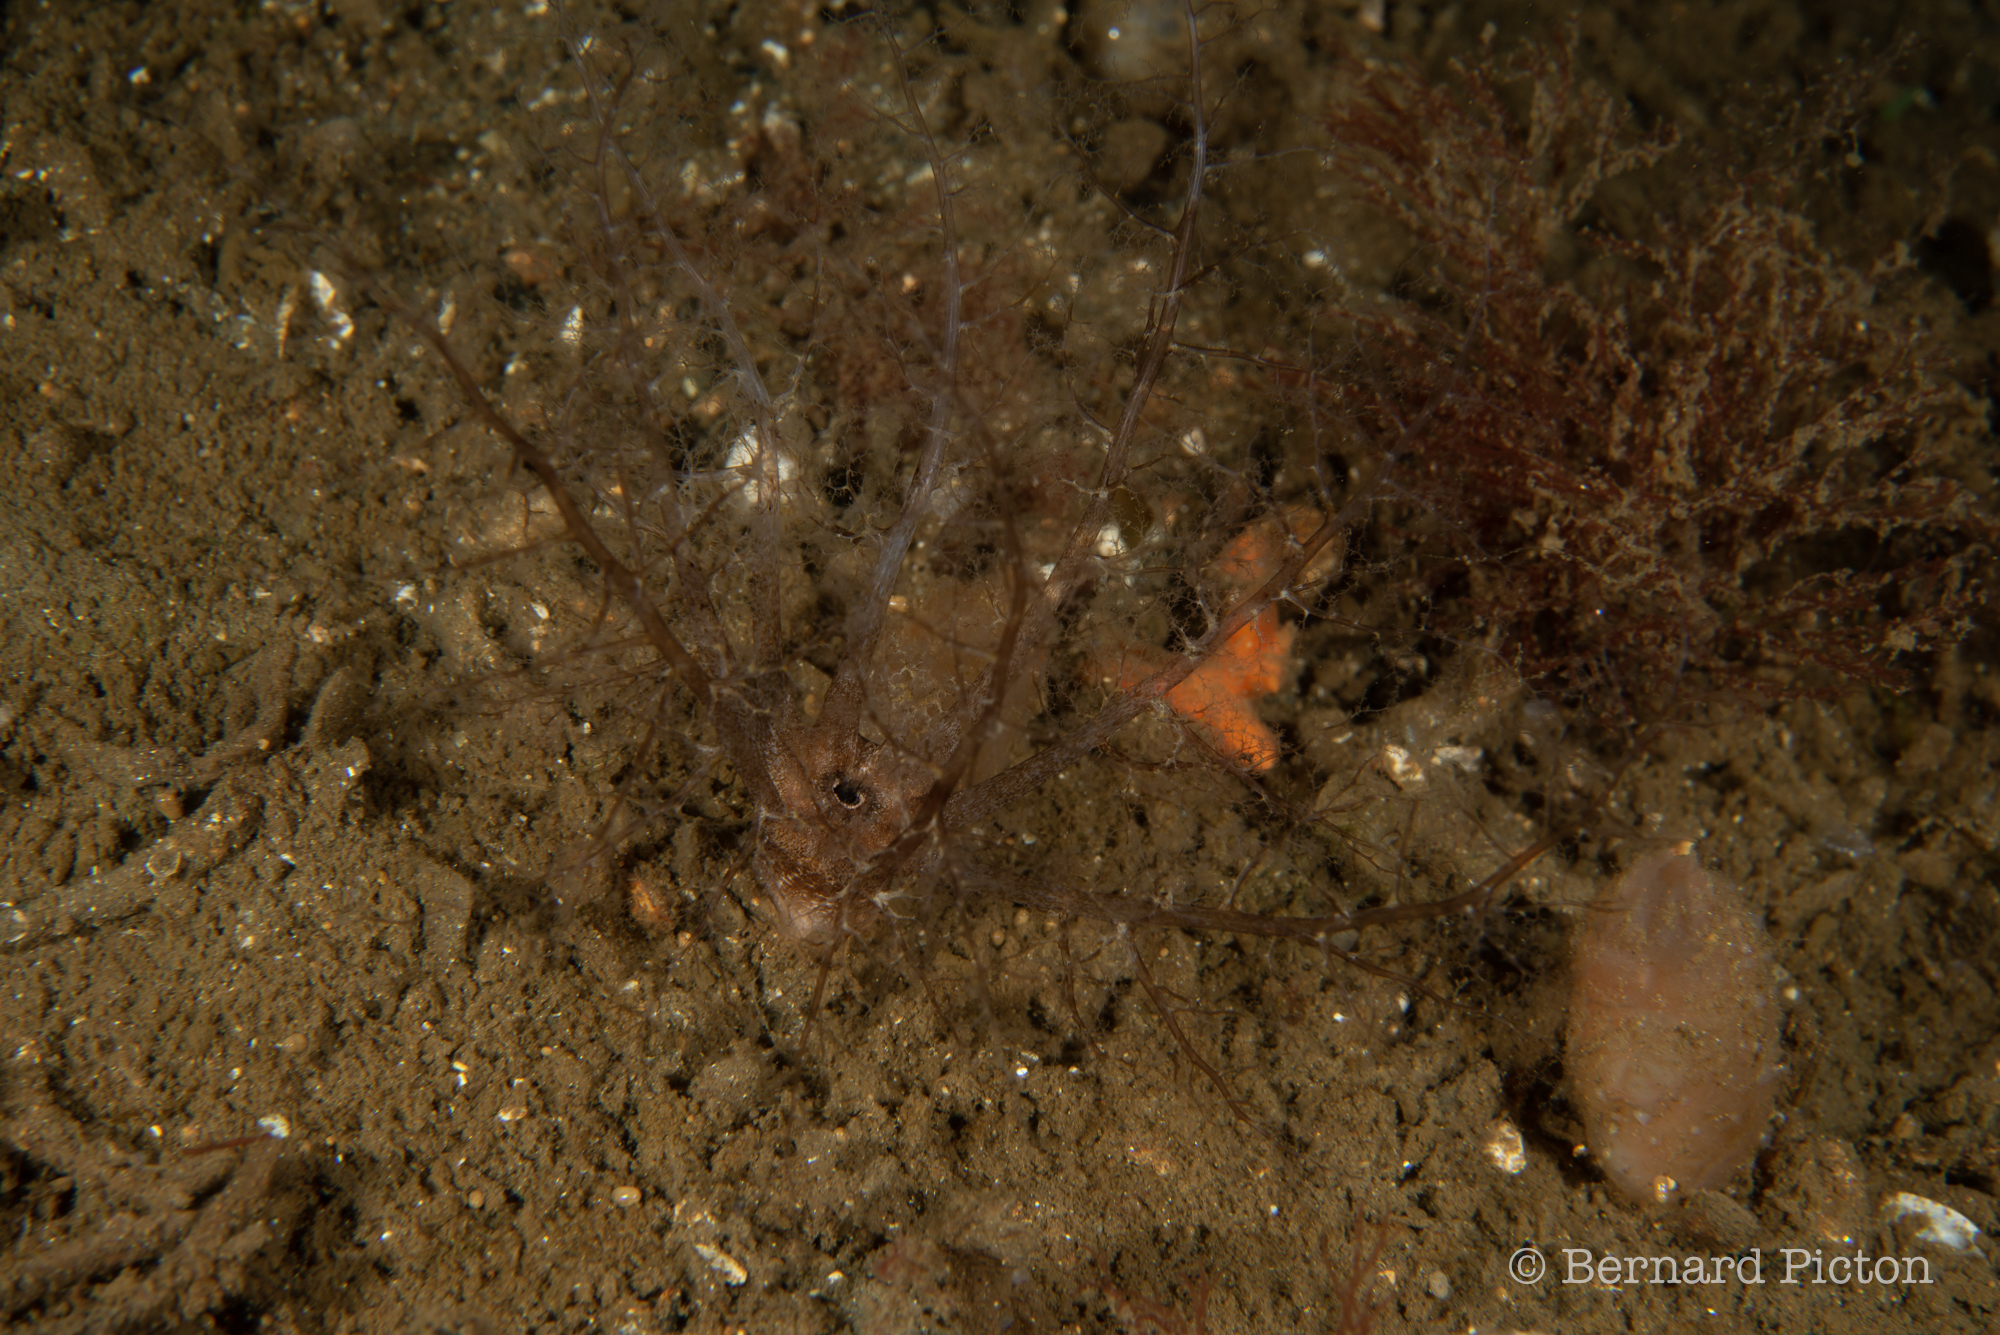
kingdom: Animalia
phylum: Echinodermata
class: Holothuroidea
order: Dendrochirotida
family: Phyllophoridae
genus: Thyone
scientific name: Thyone fusus
